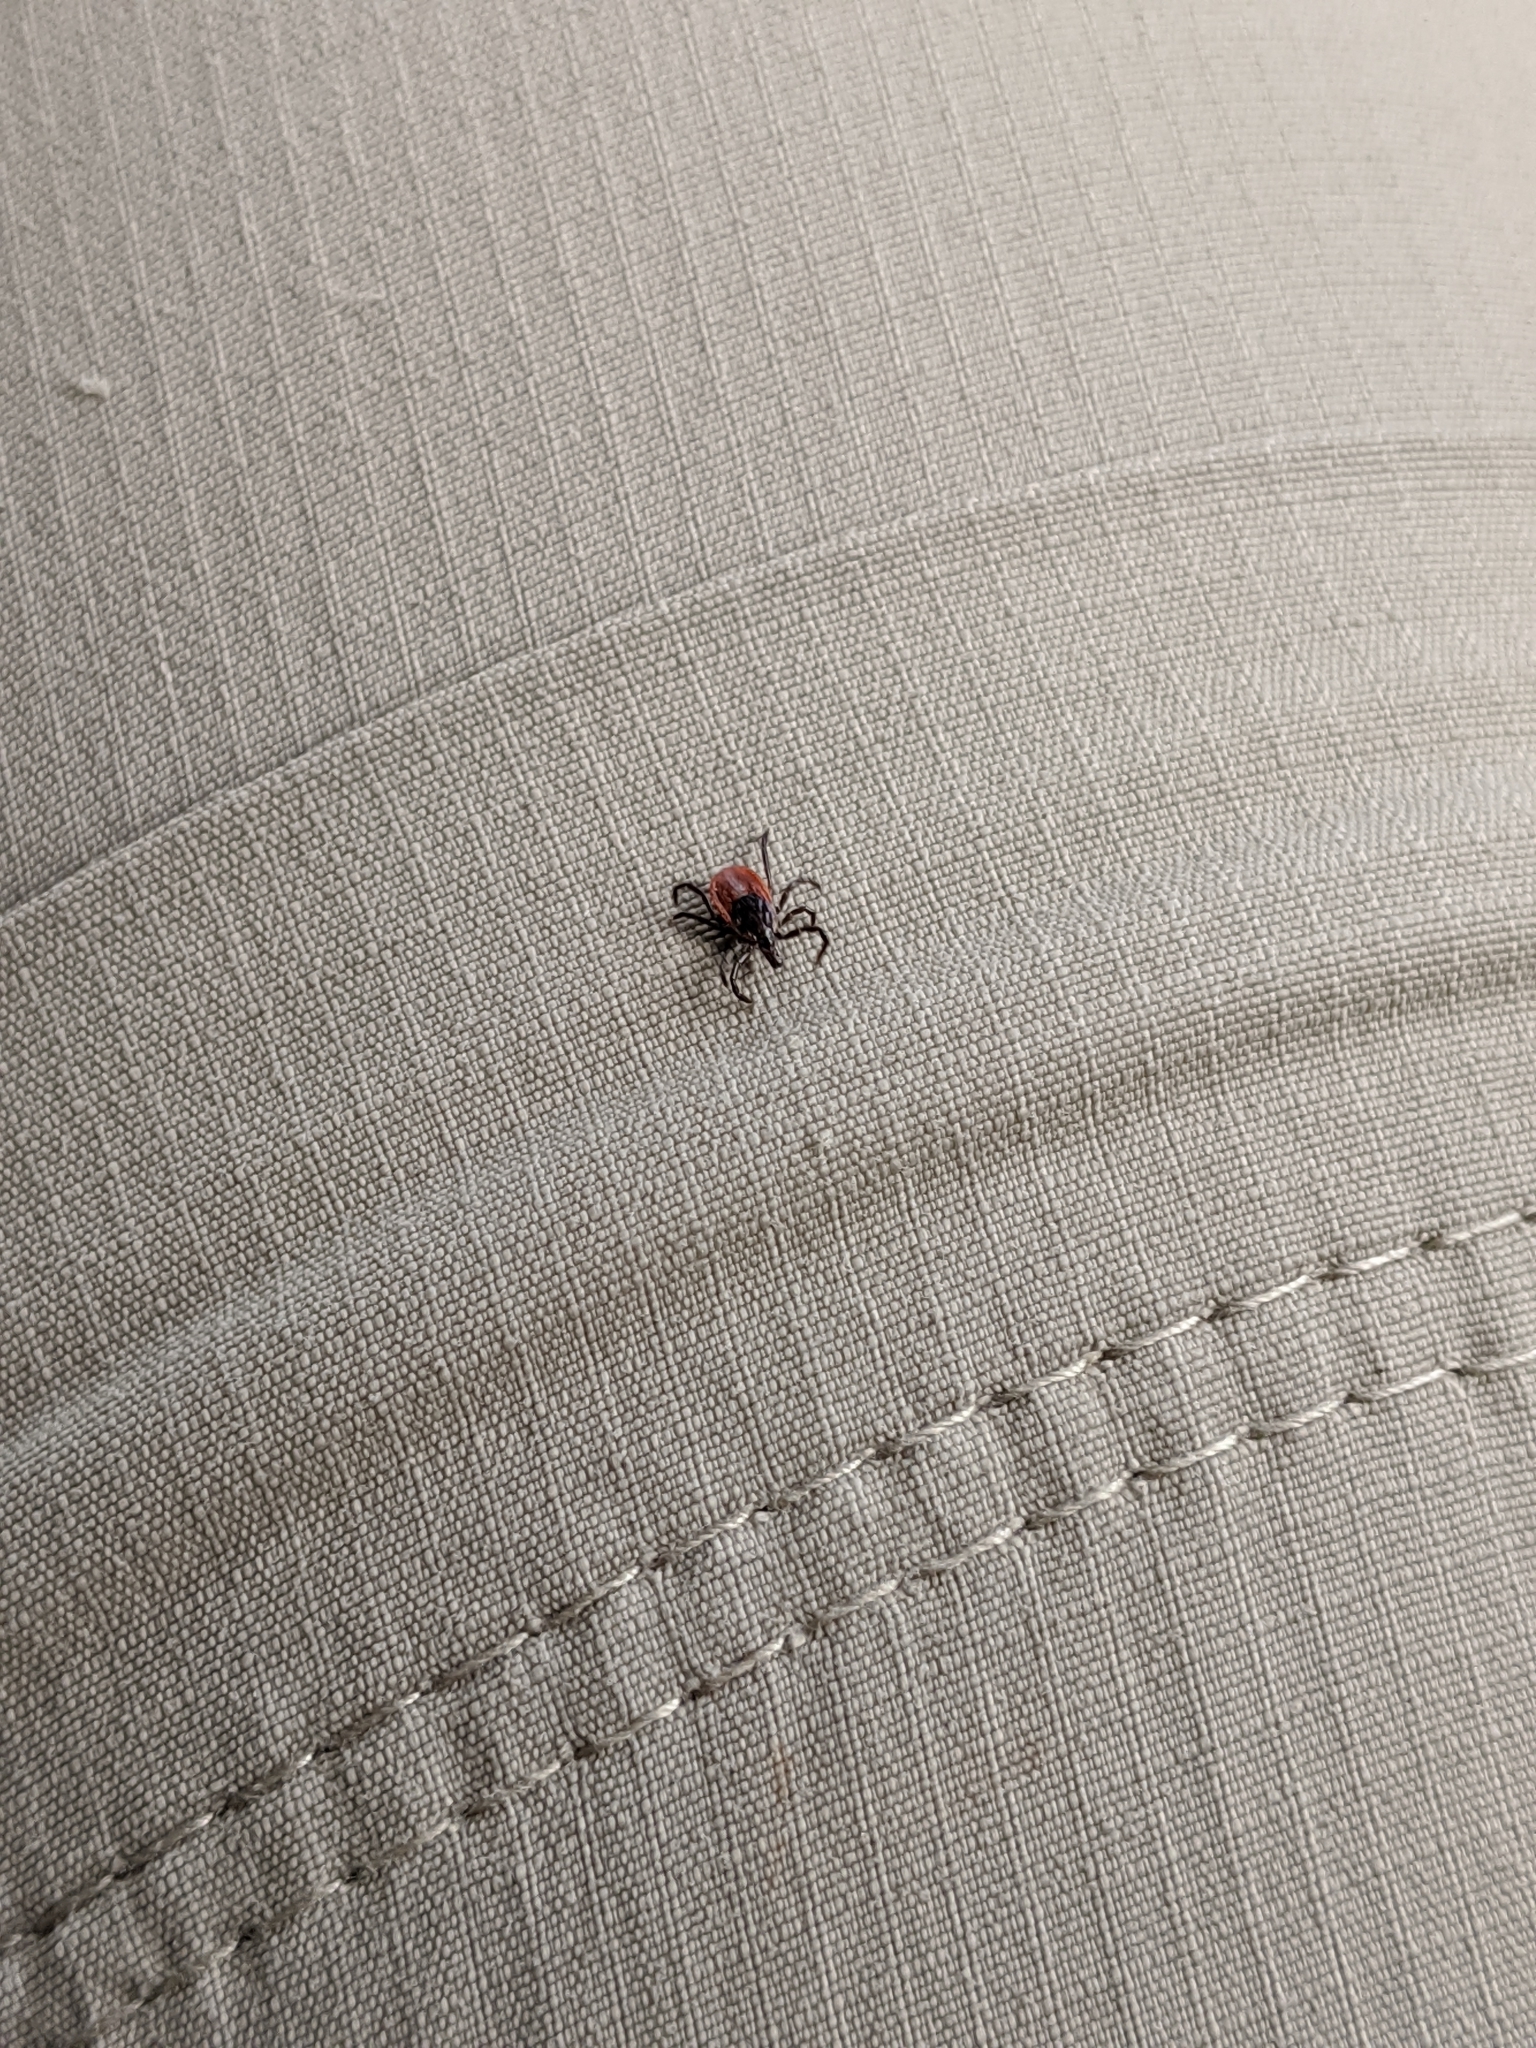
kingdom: Animalia
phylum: Arthropoda
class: Arachnida
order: Ixodida
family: Ixodidae
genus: Ixodes
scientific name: Ixodes scapularis
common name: Black legged tick
